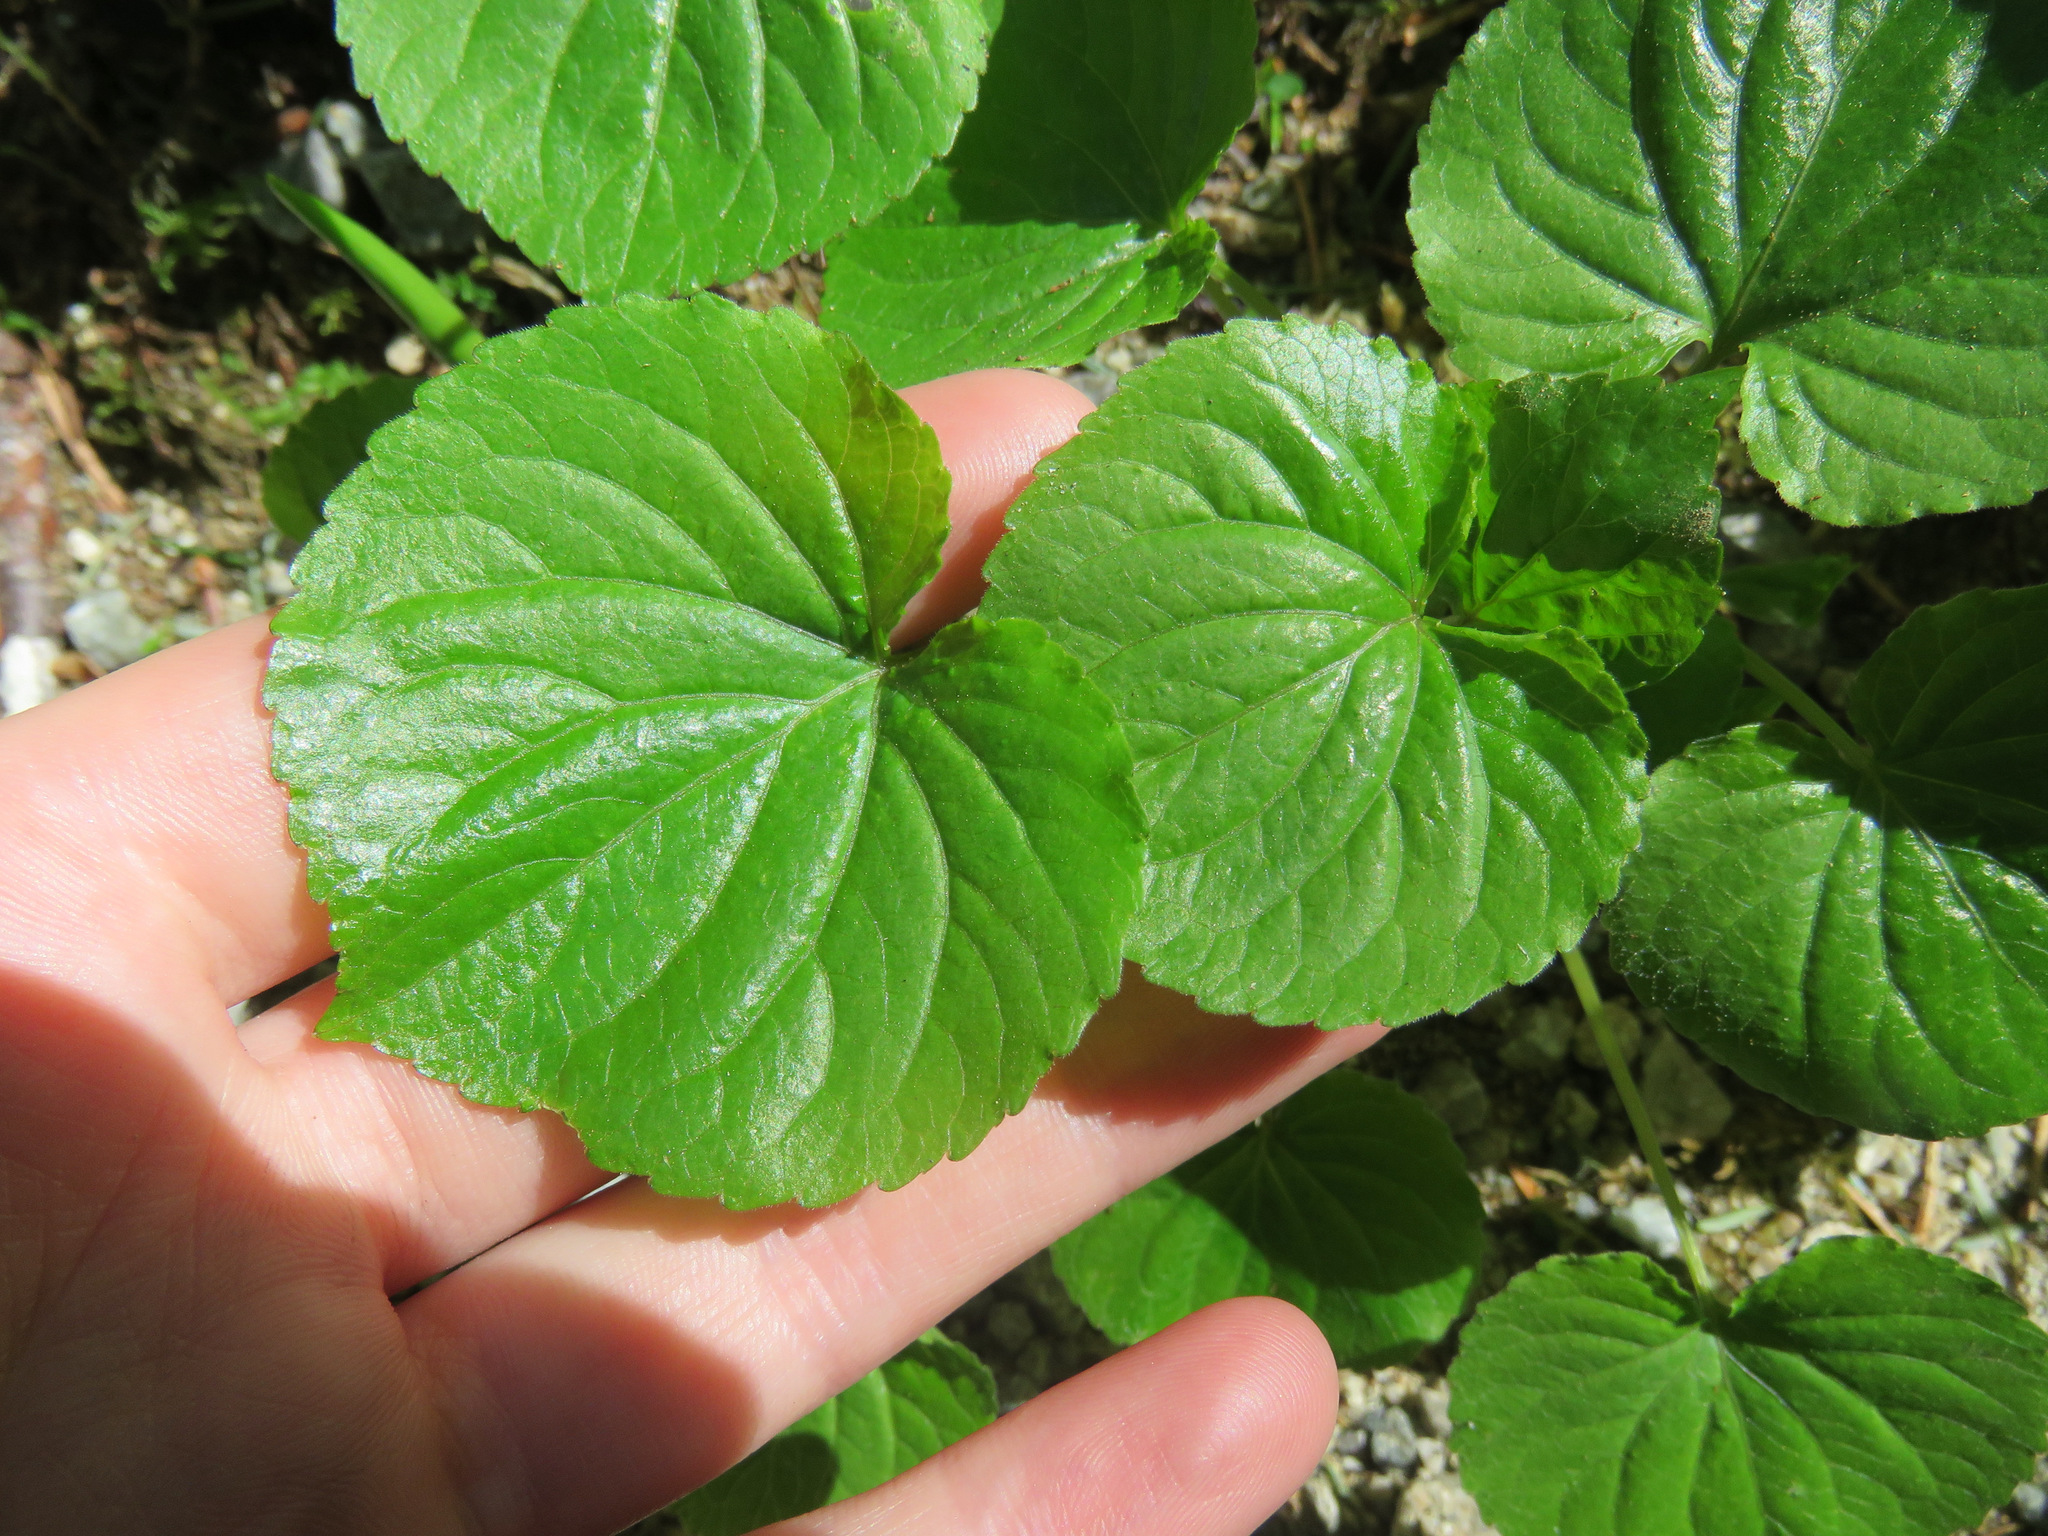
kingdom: Plantae
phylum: Tracheophyta
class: Magnoliopsida
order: Malpighiales
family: Violaceae
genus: Viola
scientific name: Viola glabella
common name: Stream violet
